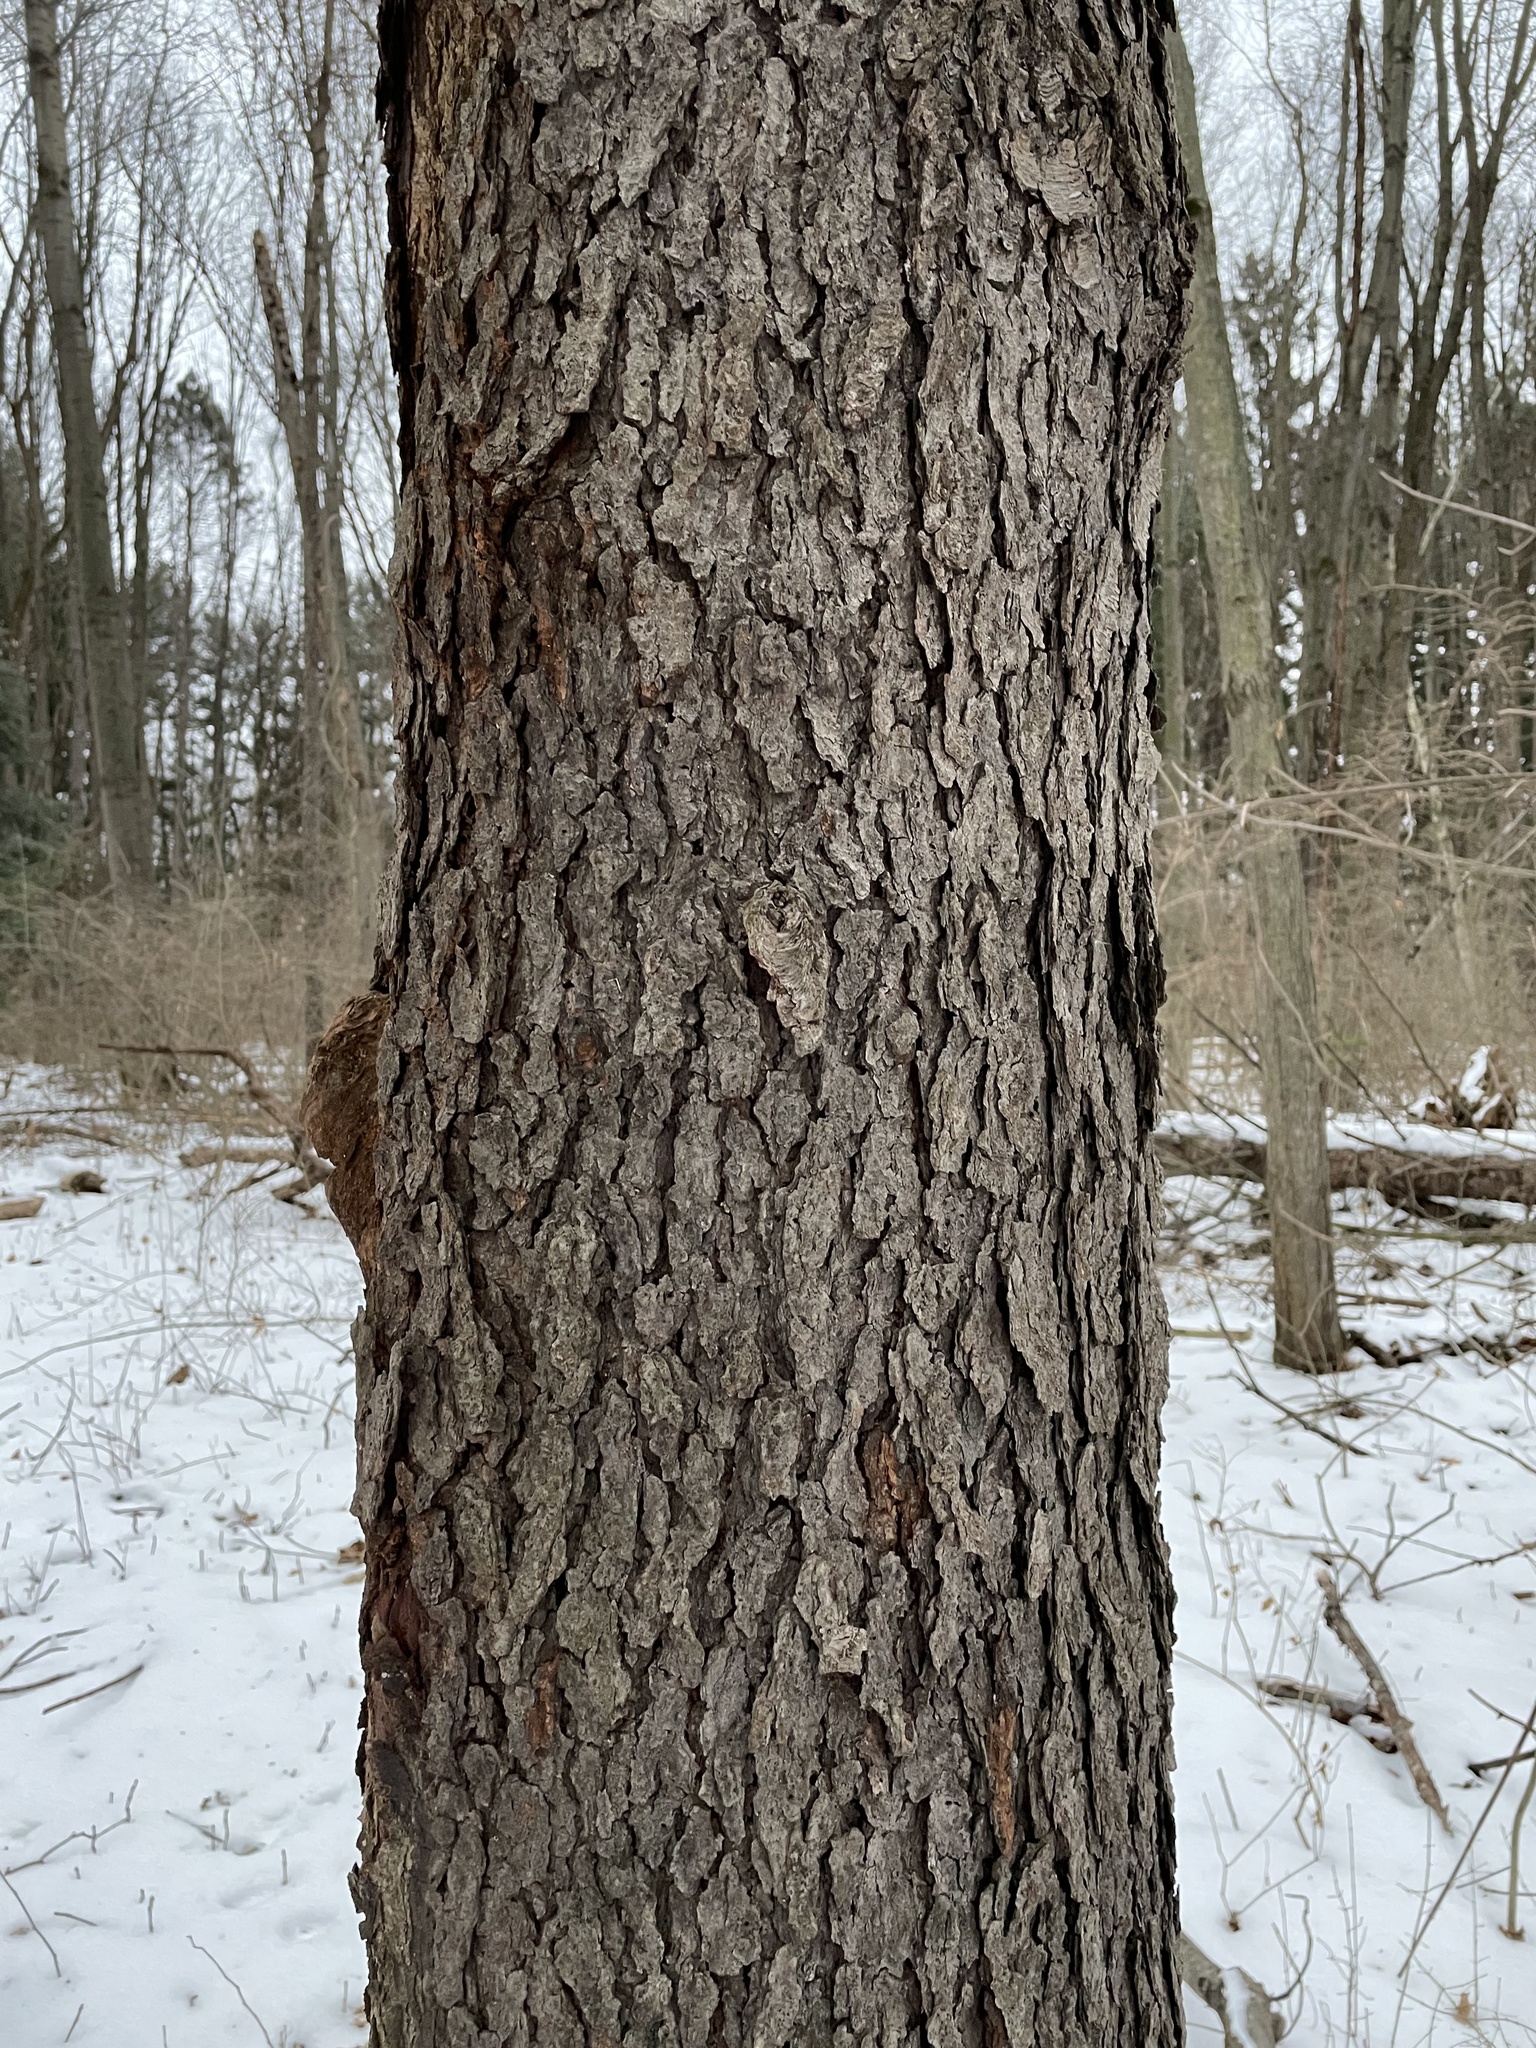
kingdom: Plantae
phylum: Tracheophyta
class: Magnoliopsida
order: Rosales
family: Rosaceae
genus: Prunus
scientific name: Prunus serotina
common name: Black cherry
